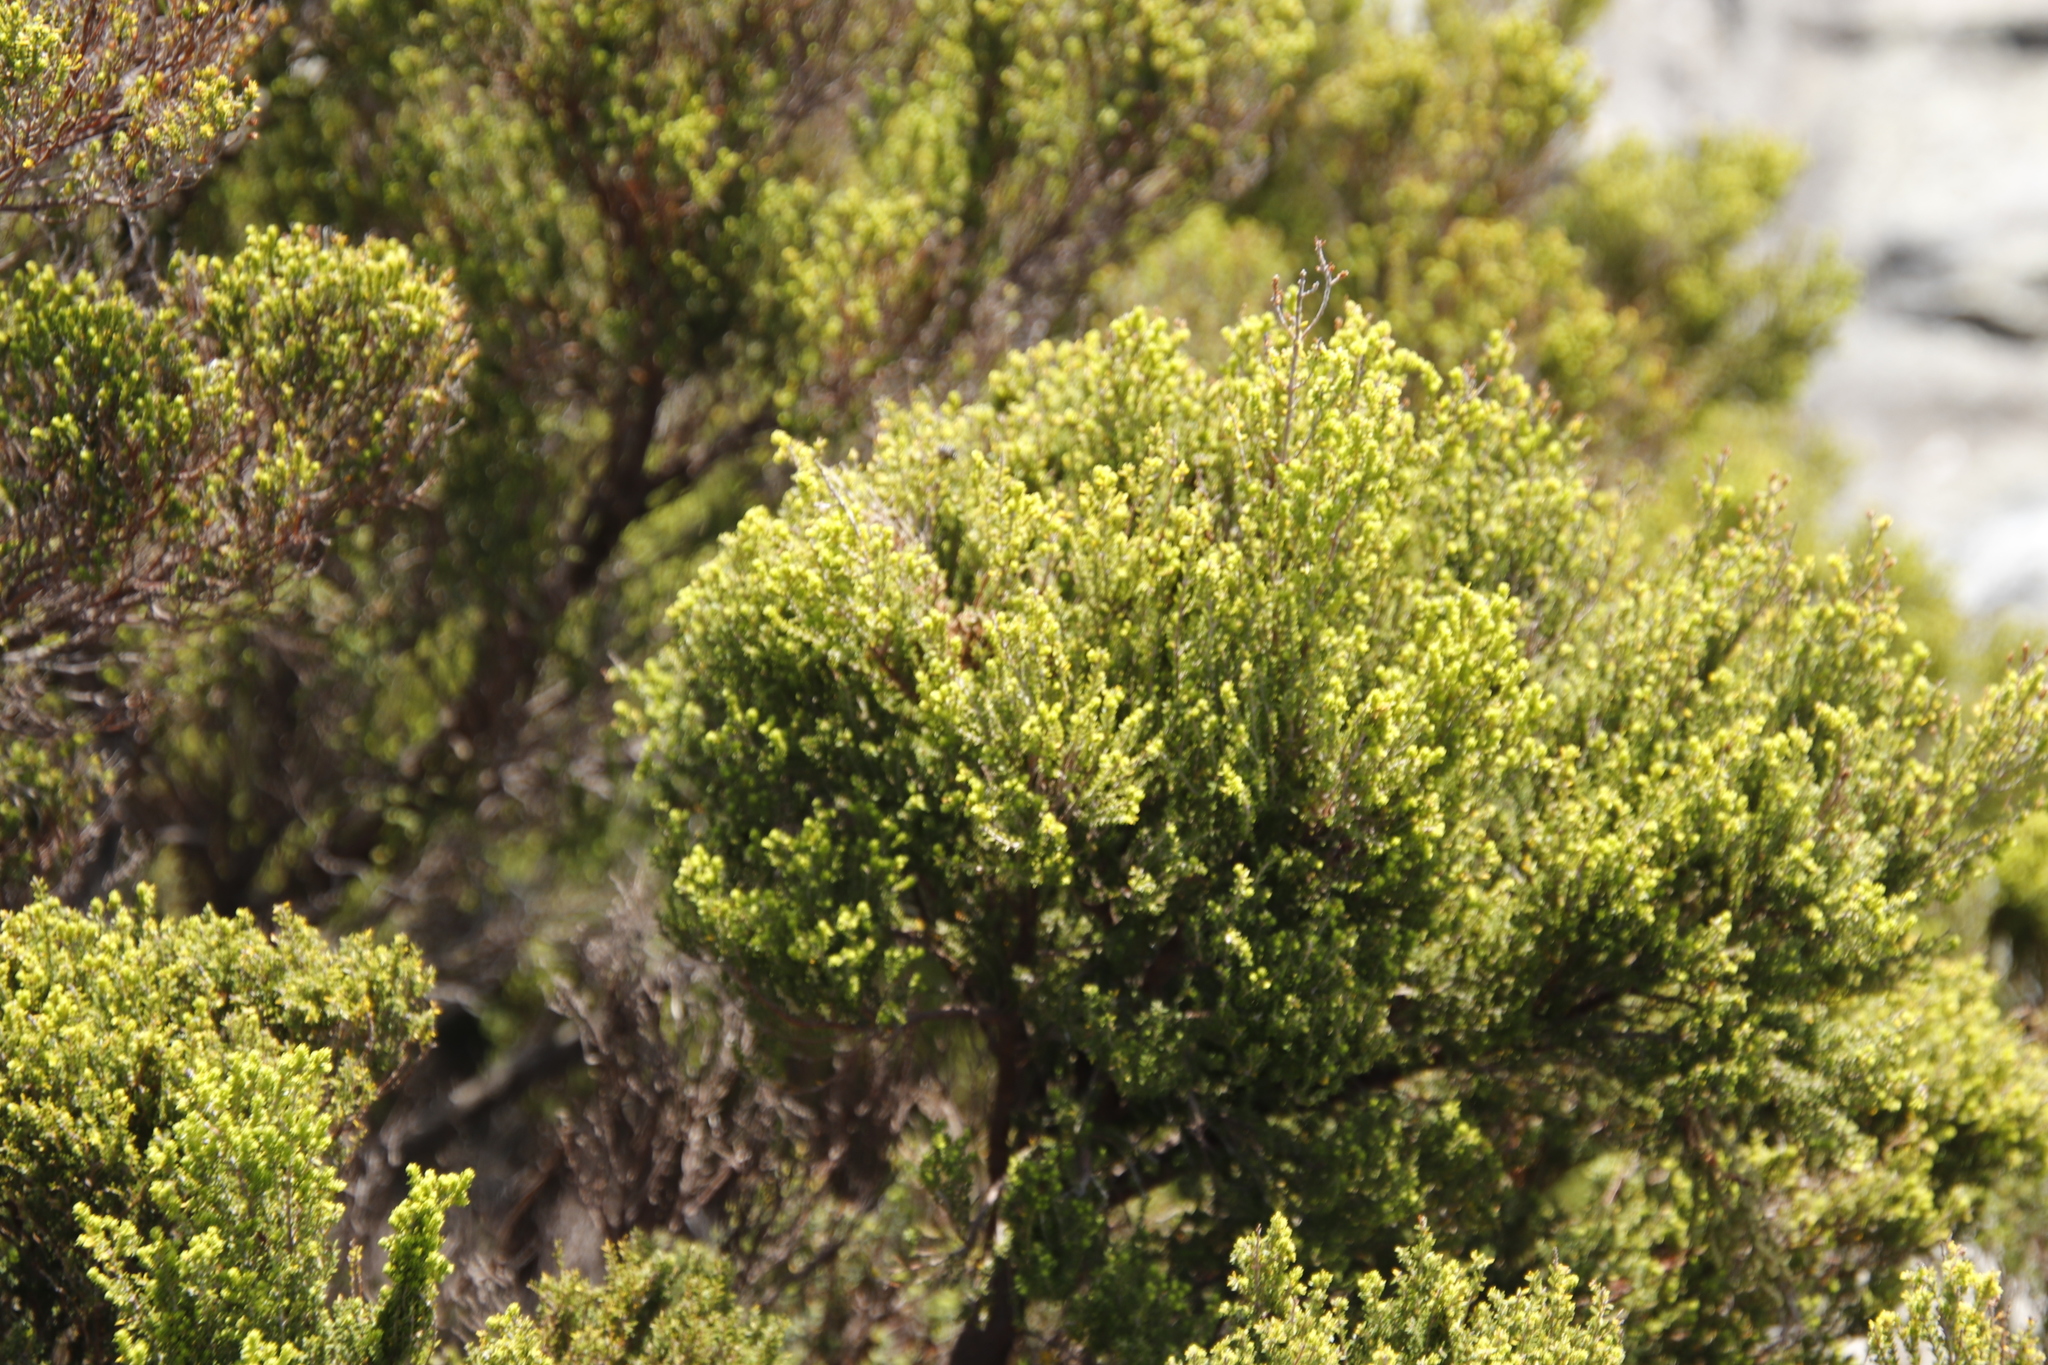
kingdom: Plantae
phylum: Tracheophyta
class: Magnoliopsida
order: Ericales
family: Ericaceae
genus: Erica
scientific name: Erica tristis
